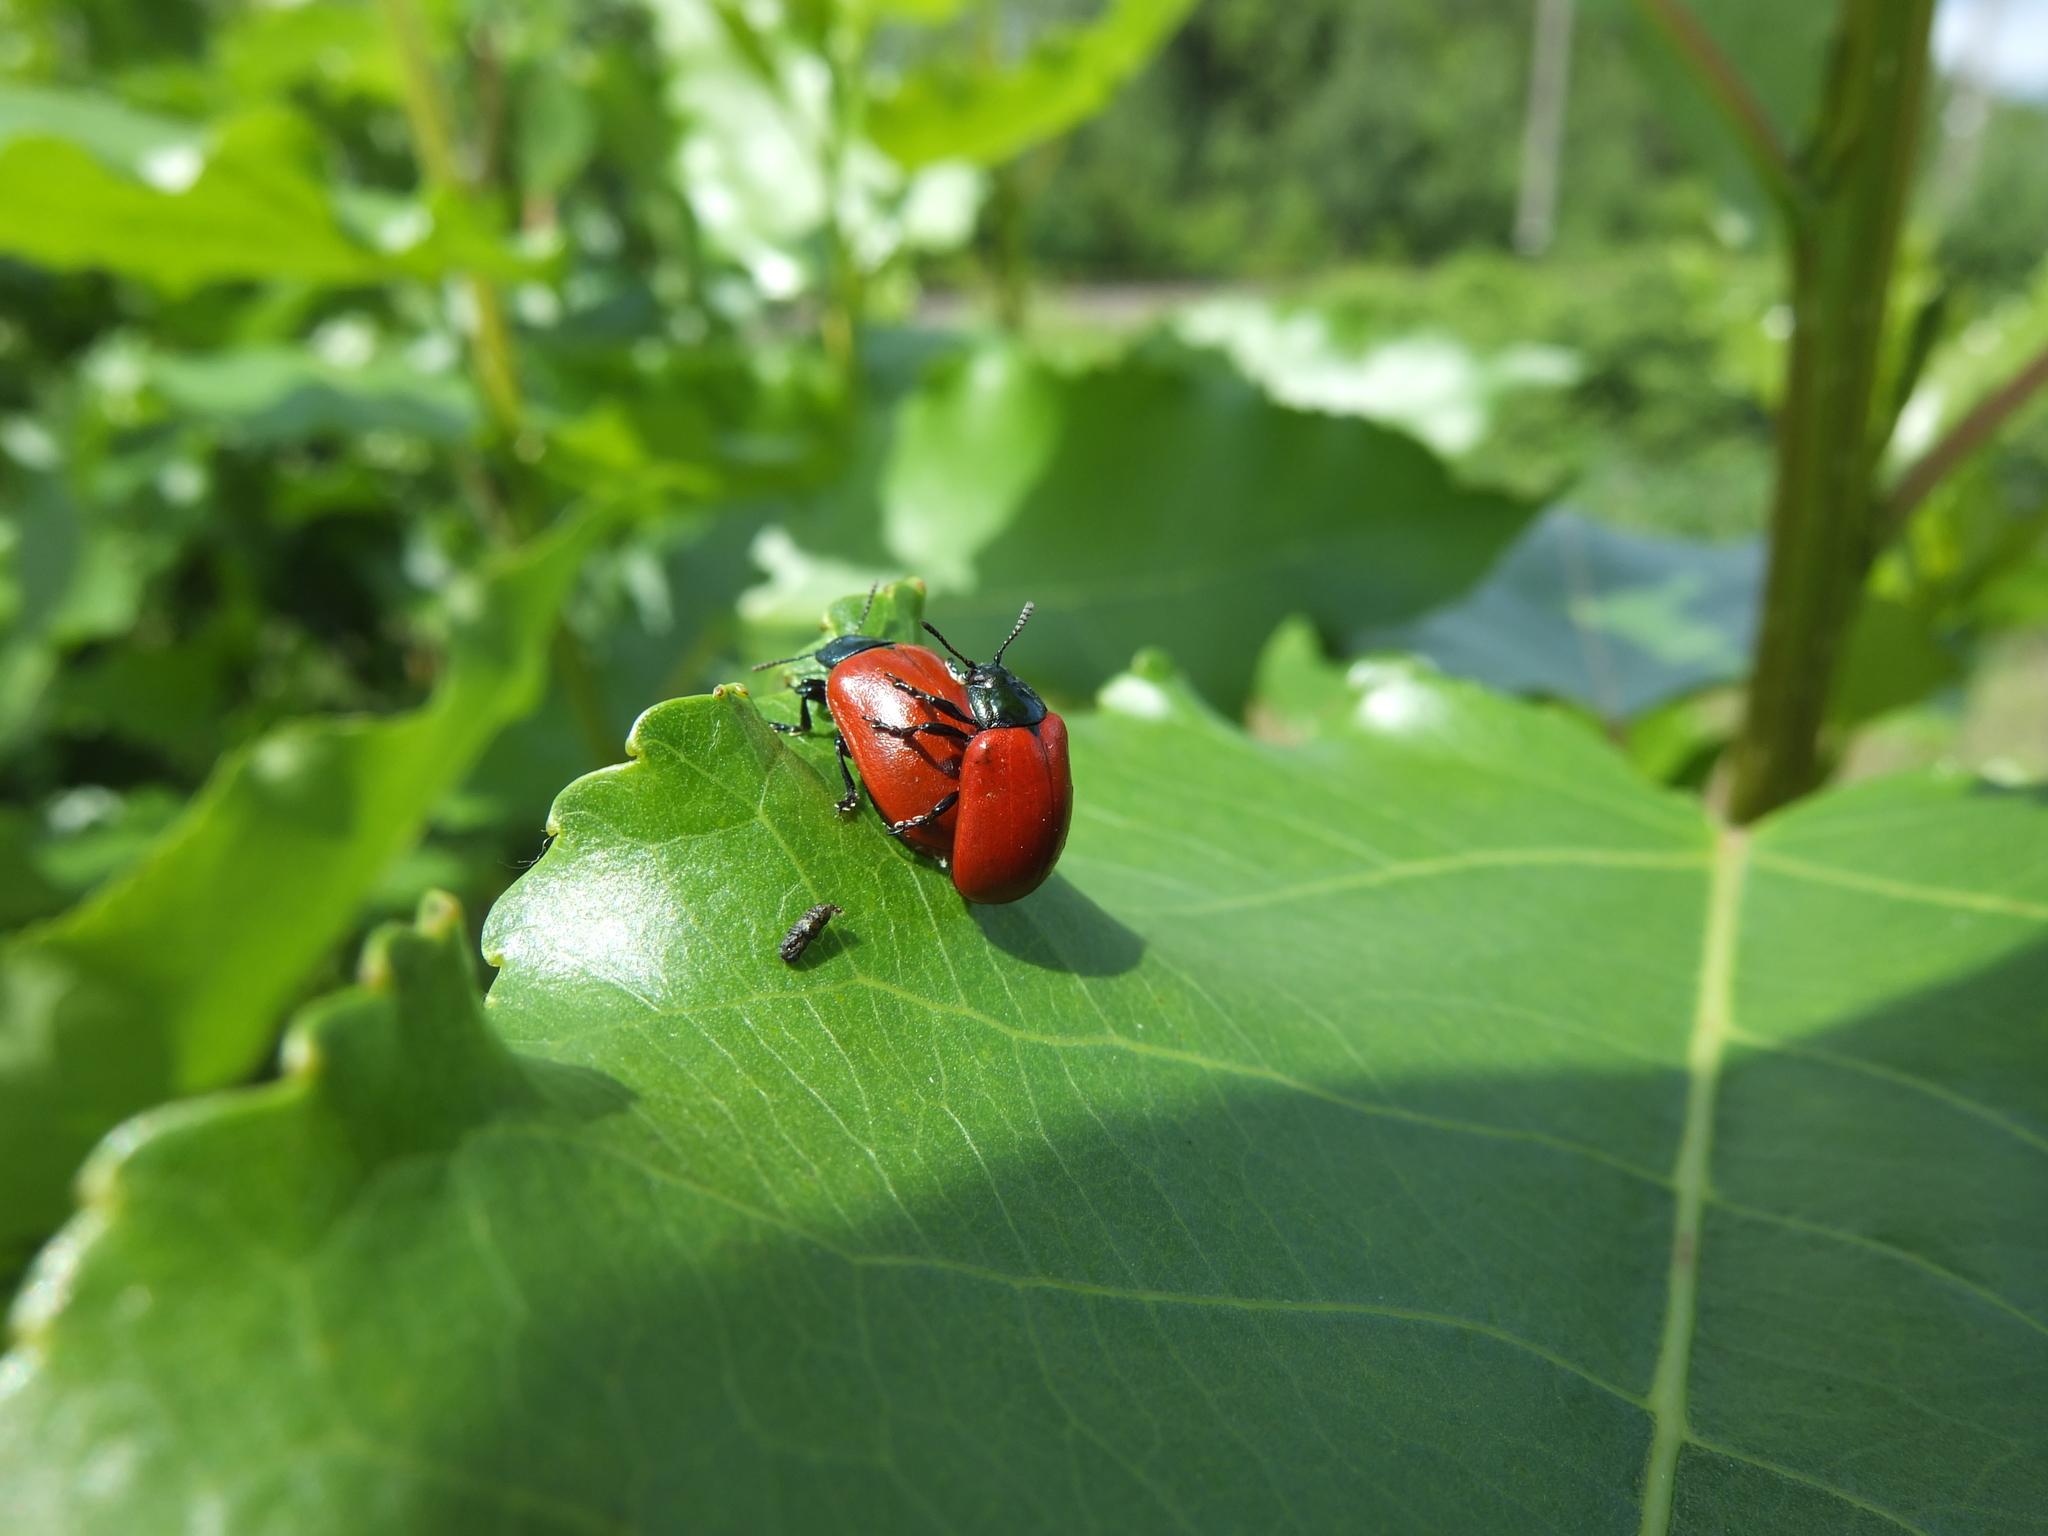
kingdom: Animalia
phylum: Arthropoda
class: Insecta
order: Coleoptera
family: Chrysomelidae
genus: Chrysomela
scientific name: Chrysomela populi
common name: Red poplar leaf beetle
